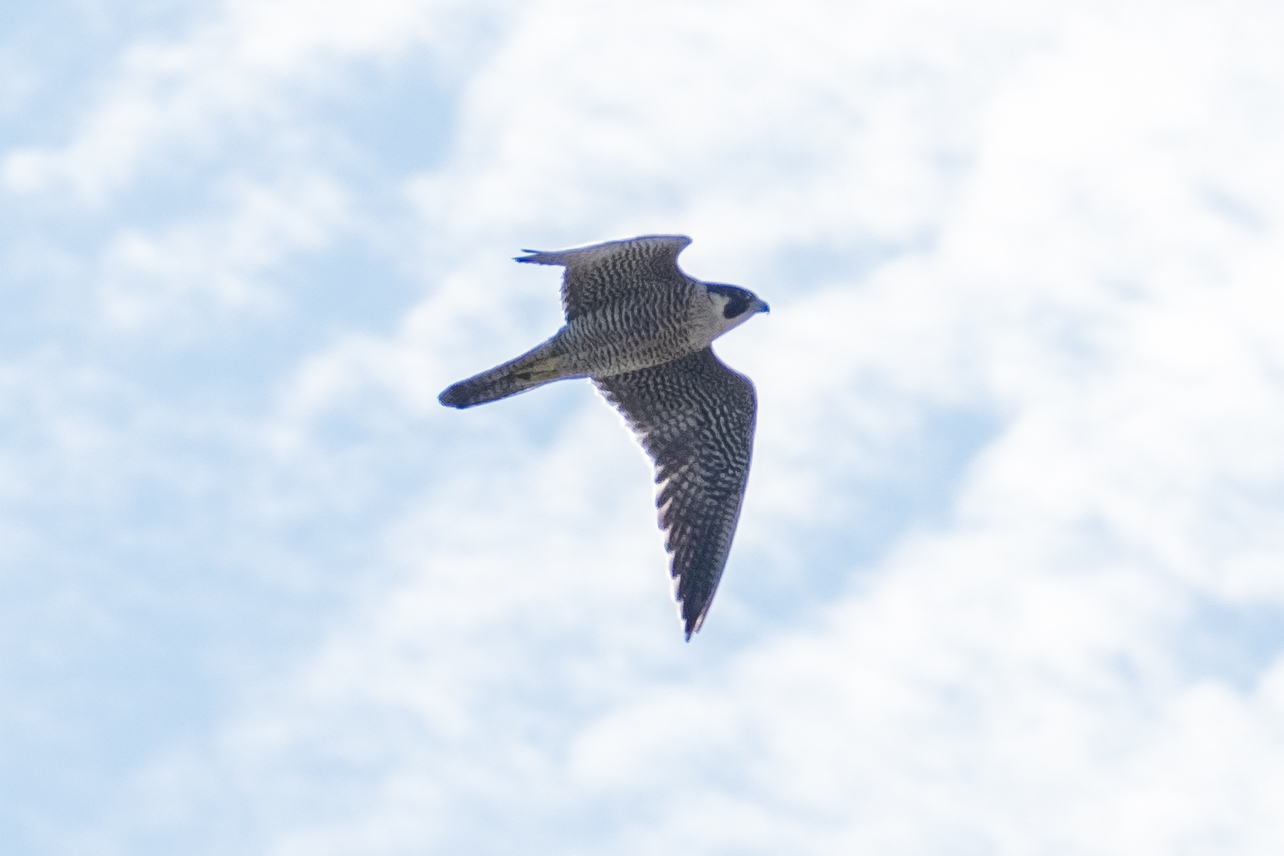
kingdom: Animalia
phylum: Chordata
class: Aves
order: Falconiformes
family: Falconidae
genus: Falco
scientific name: Falco peregrinus
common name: Peregrine falcon
